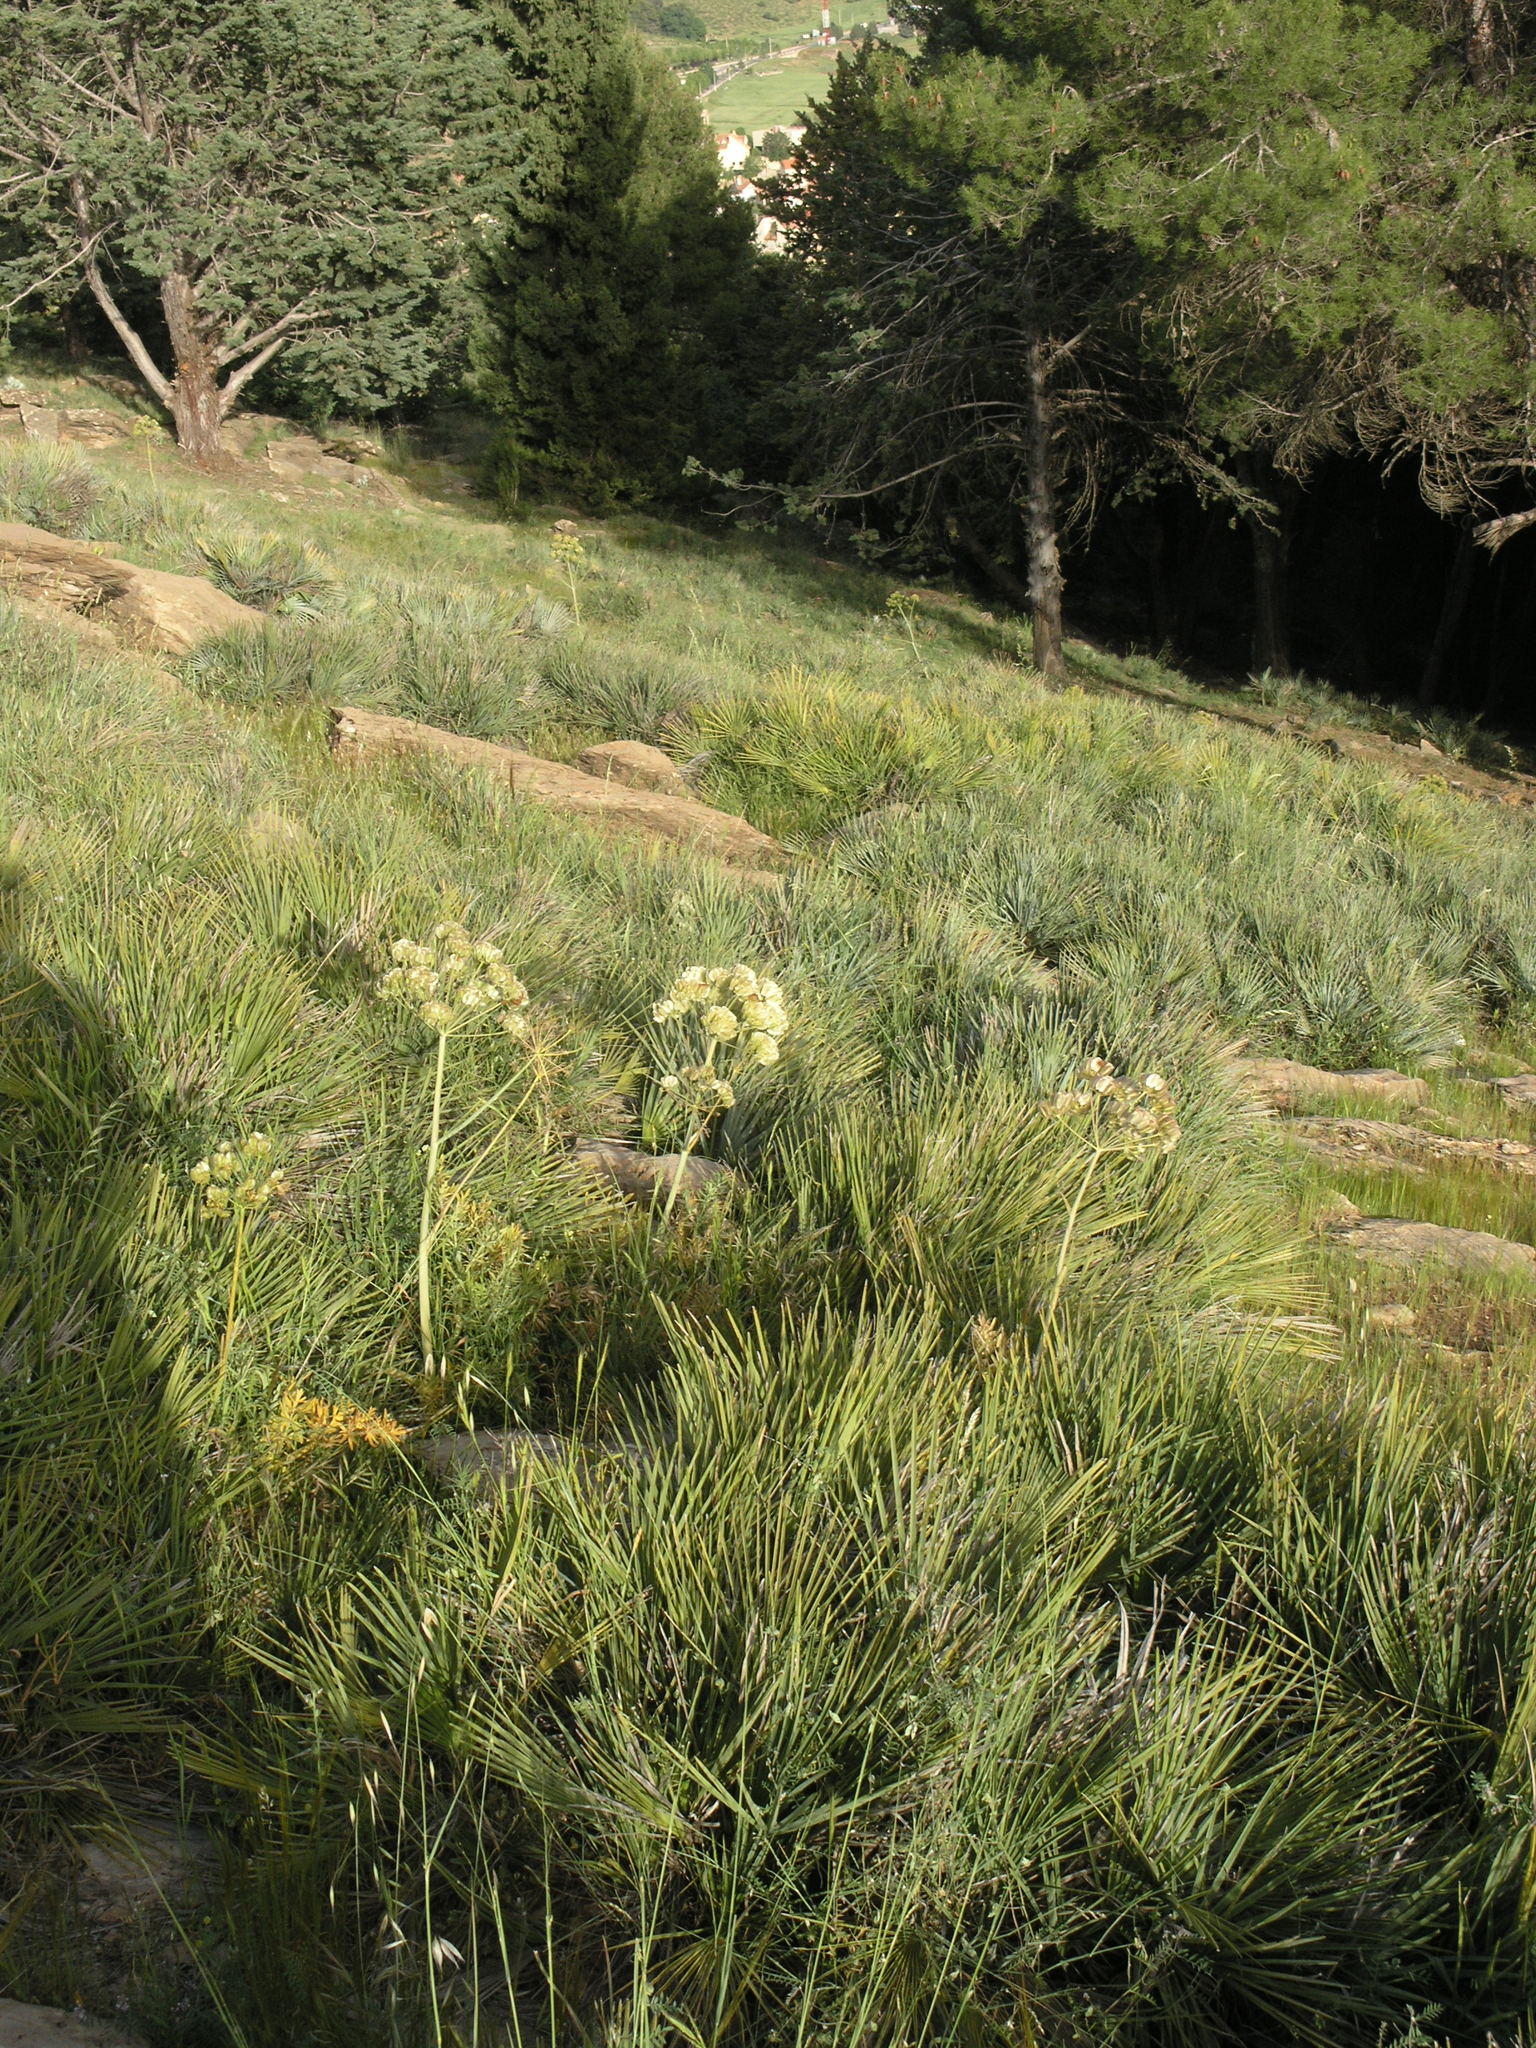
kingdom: Plantae
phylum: Tracheophyta
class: Liliopsida
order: Arecales
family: Arecaceae
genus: Chamaerops
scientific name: Chamaerops humilis
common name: Dwarf fan palm
